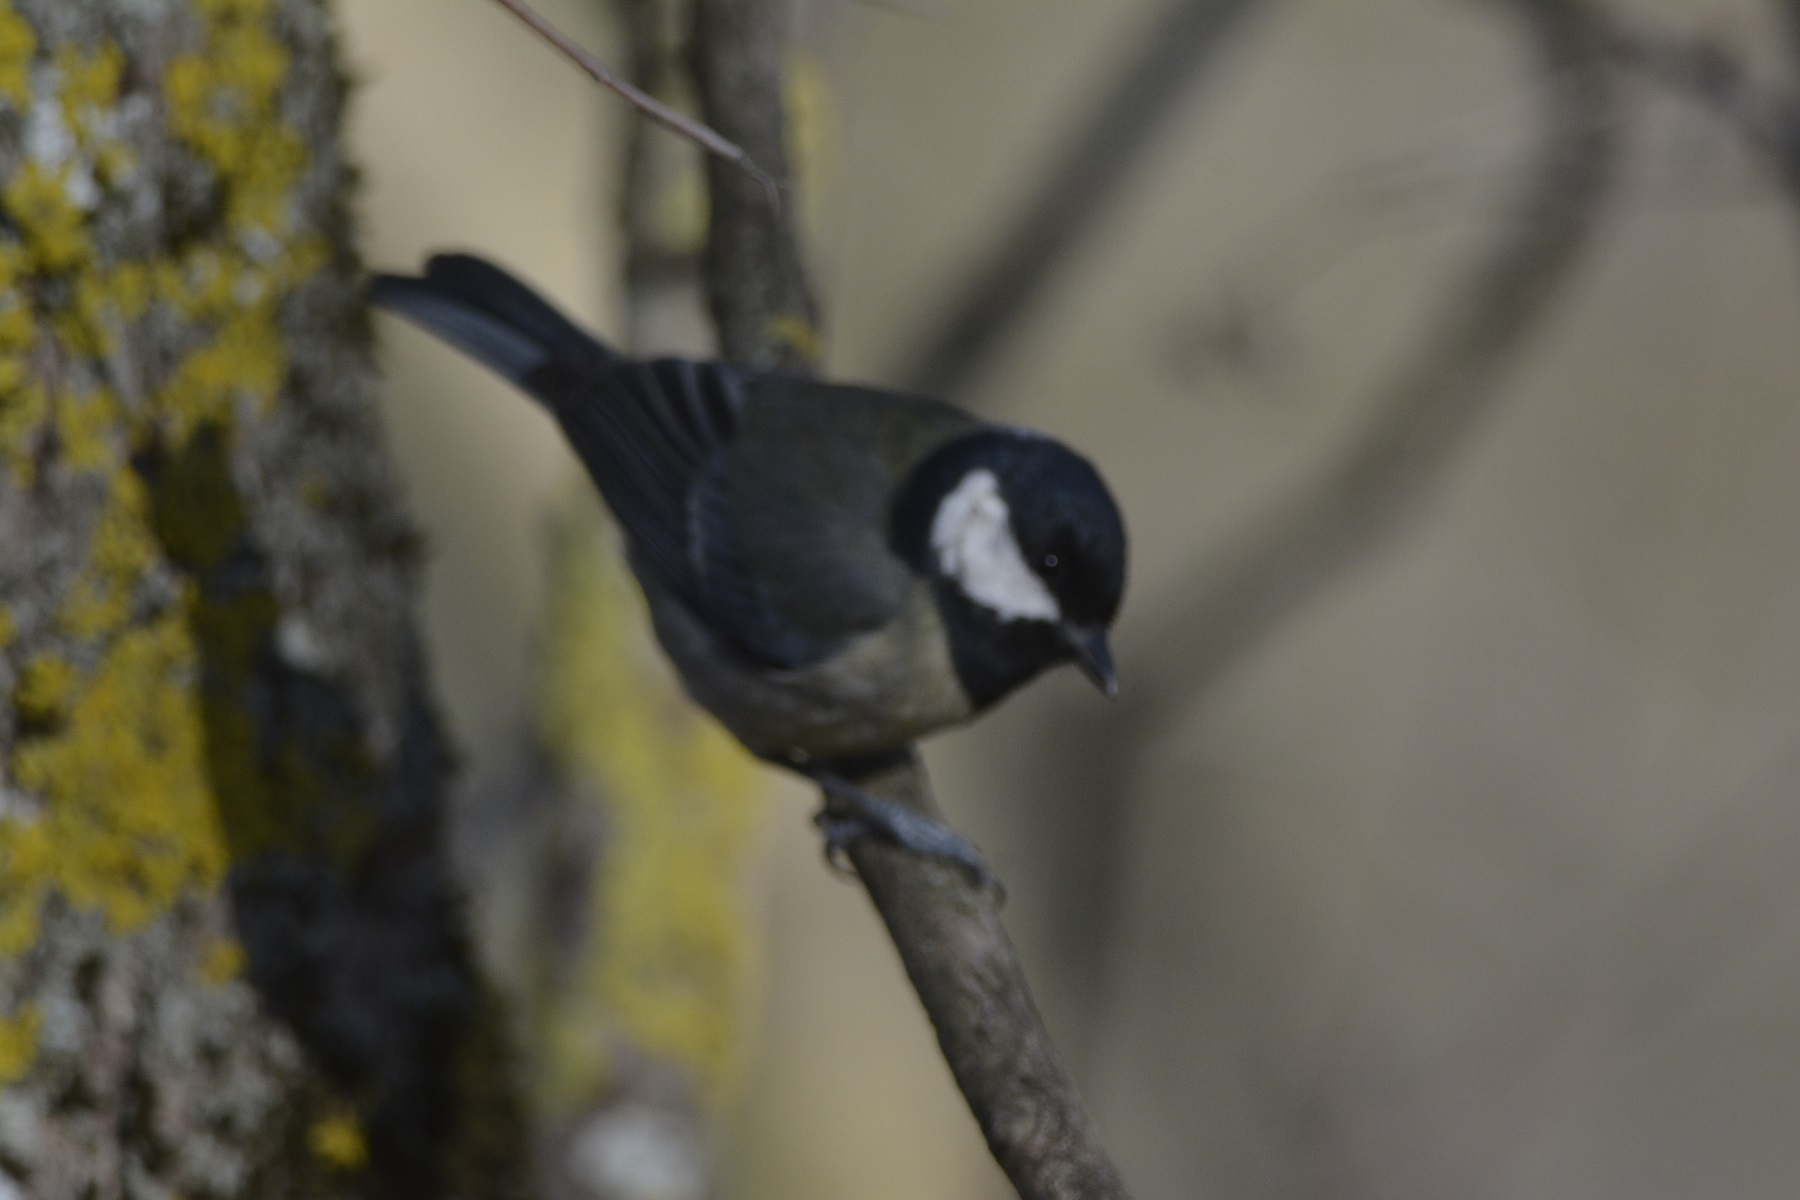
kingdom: Animalia
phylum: Chordata
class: Aves
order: Passeriformes
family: Paridae
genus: Parus
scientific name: Parus major
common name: Great tit
